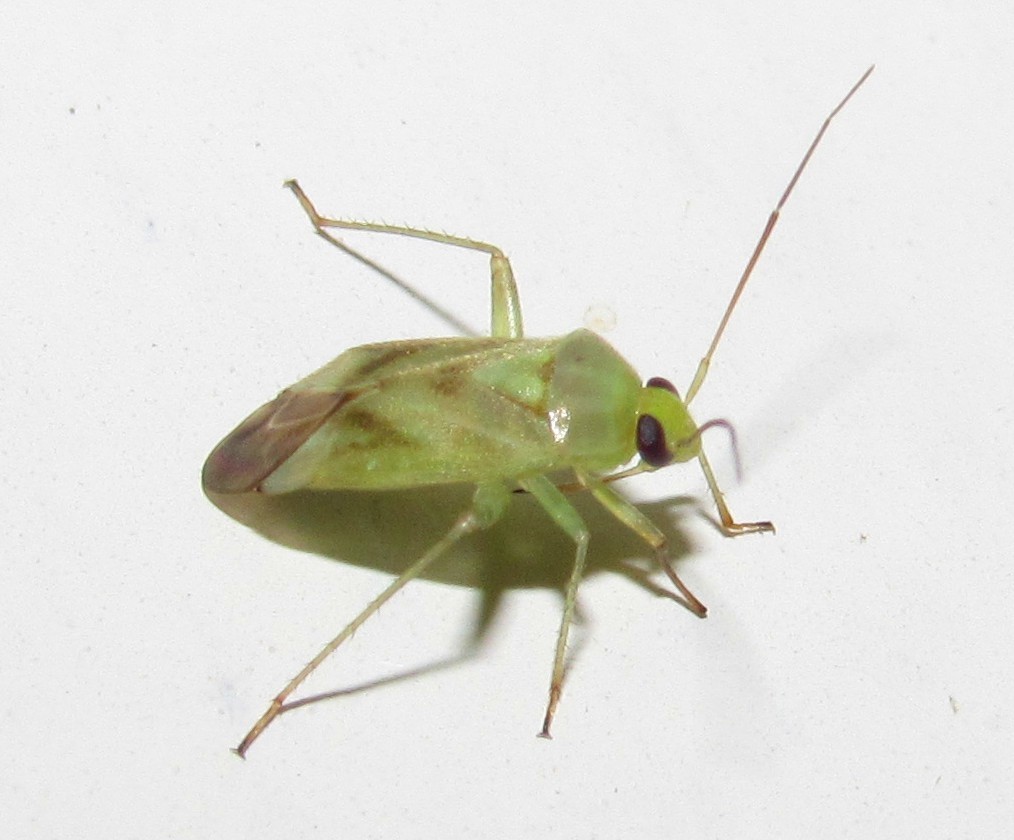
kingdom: Animalia
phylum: Arthropoda
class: Insecta
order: Hemiptera
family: Miridae
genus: Taylorilygus
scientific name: Taylorilygus apicalis
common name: Plant bug
